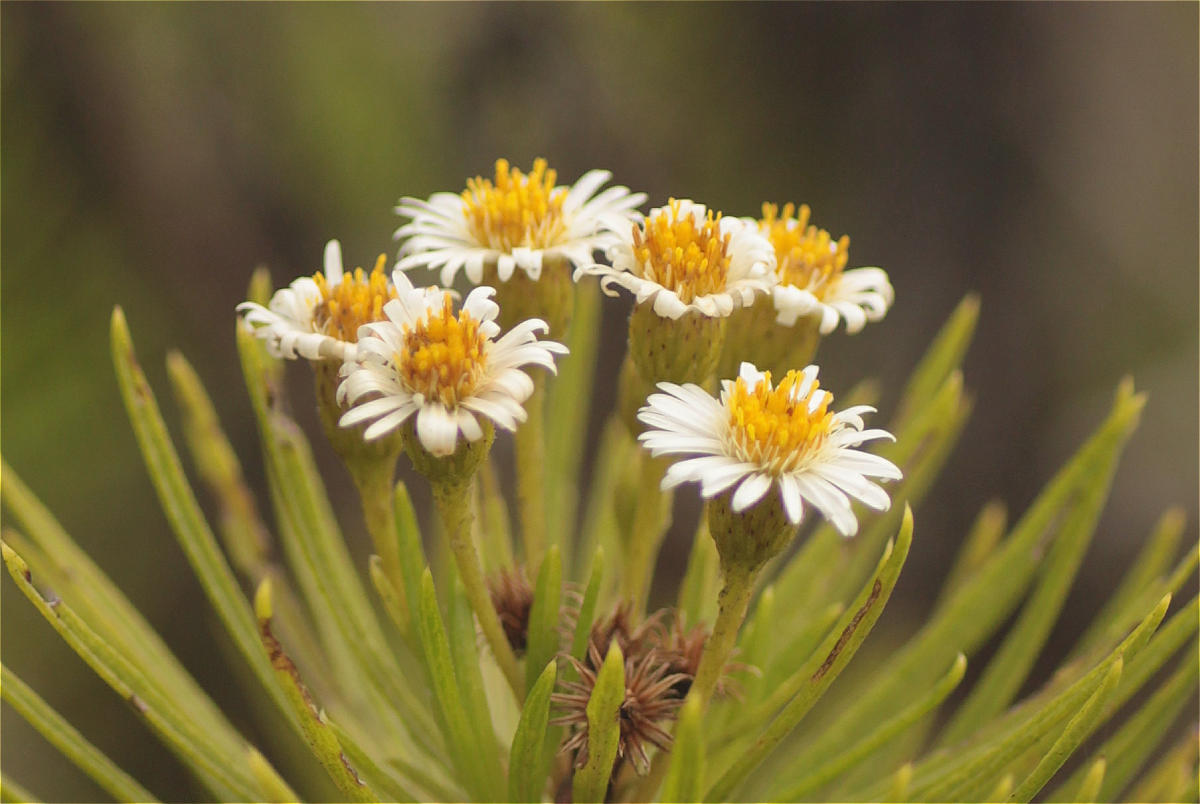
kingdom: Plantae
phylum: Tracheophyta
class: Magnoliopsida
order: Asterales
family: Asteraceae
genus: Erigeron
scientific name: Erigeron tenuifolius
